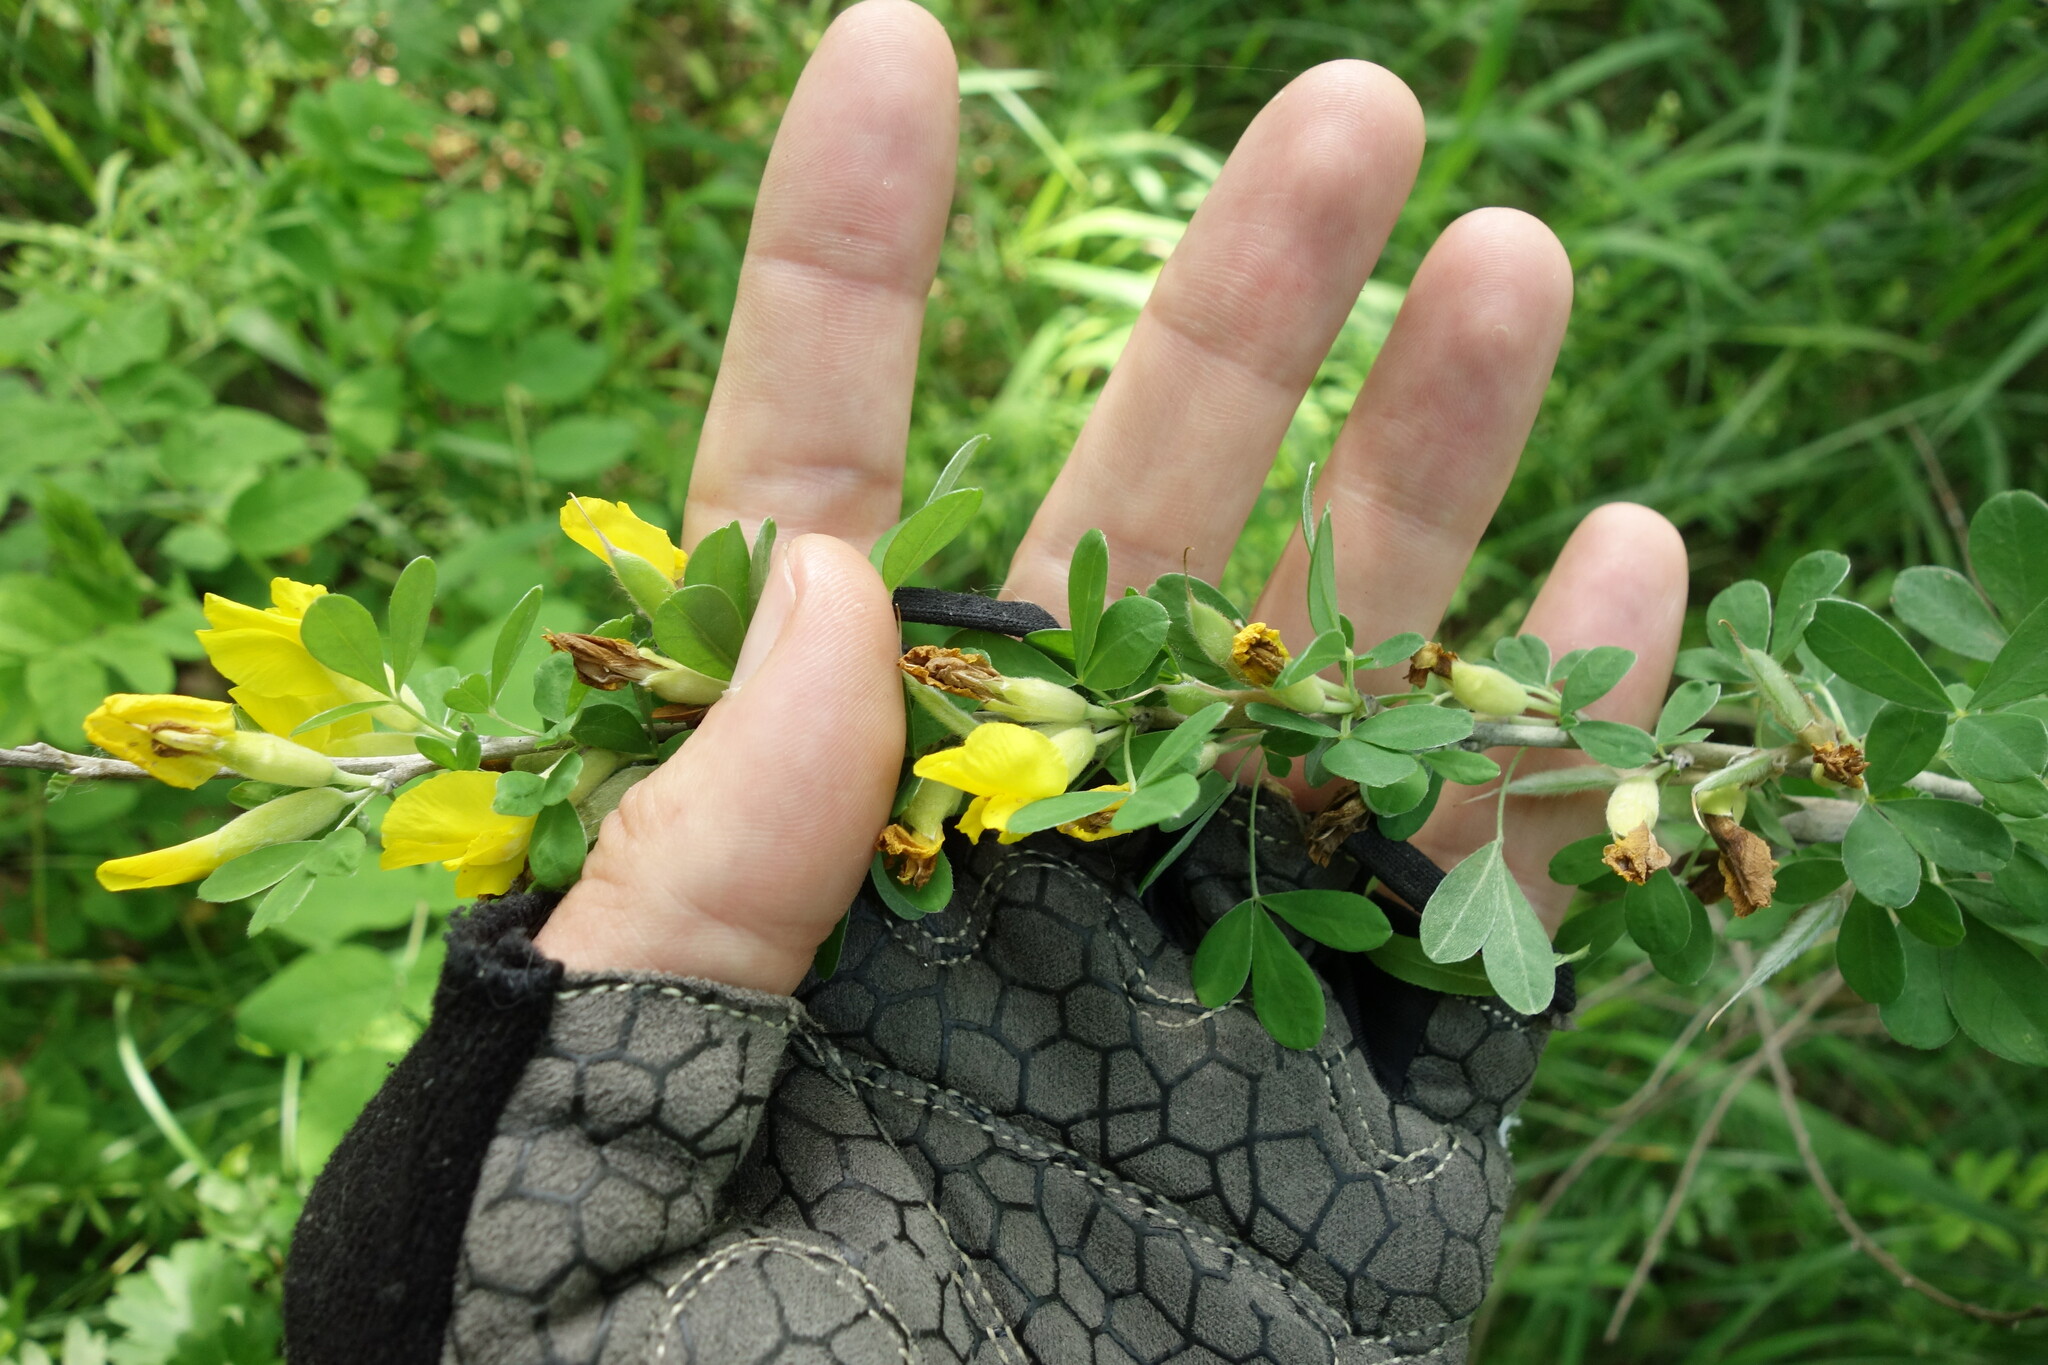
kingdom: Plantae
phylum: Tracheophyta
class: Magnoliopsida
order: Fabales
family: Fabaceae
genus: Chamaecytisus
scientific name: Chamaecytisus ruthenicus
